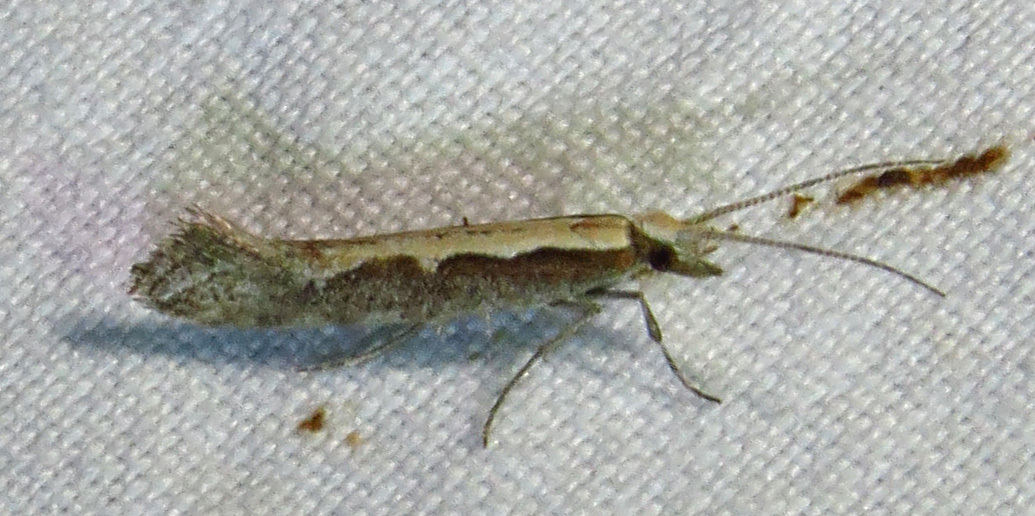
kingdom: Animalia
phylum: Arthropoda
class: Insecta
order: Lepidoptera
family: Plutellidae
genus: Plutella
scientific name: Plutella xylostella
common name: Diamond-back moth
